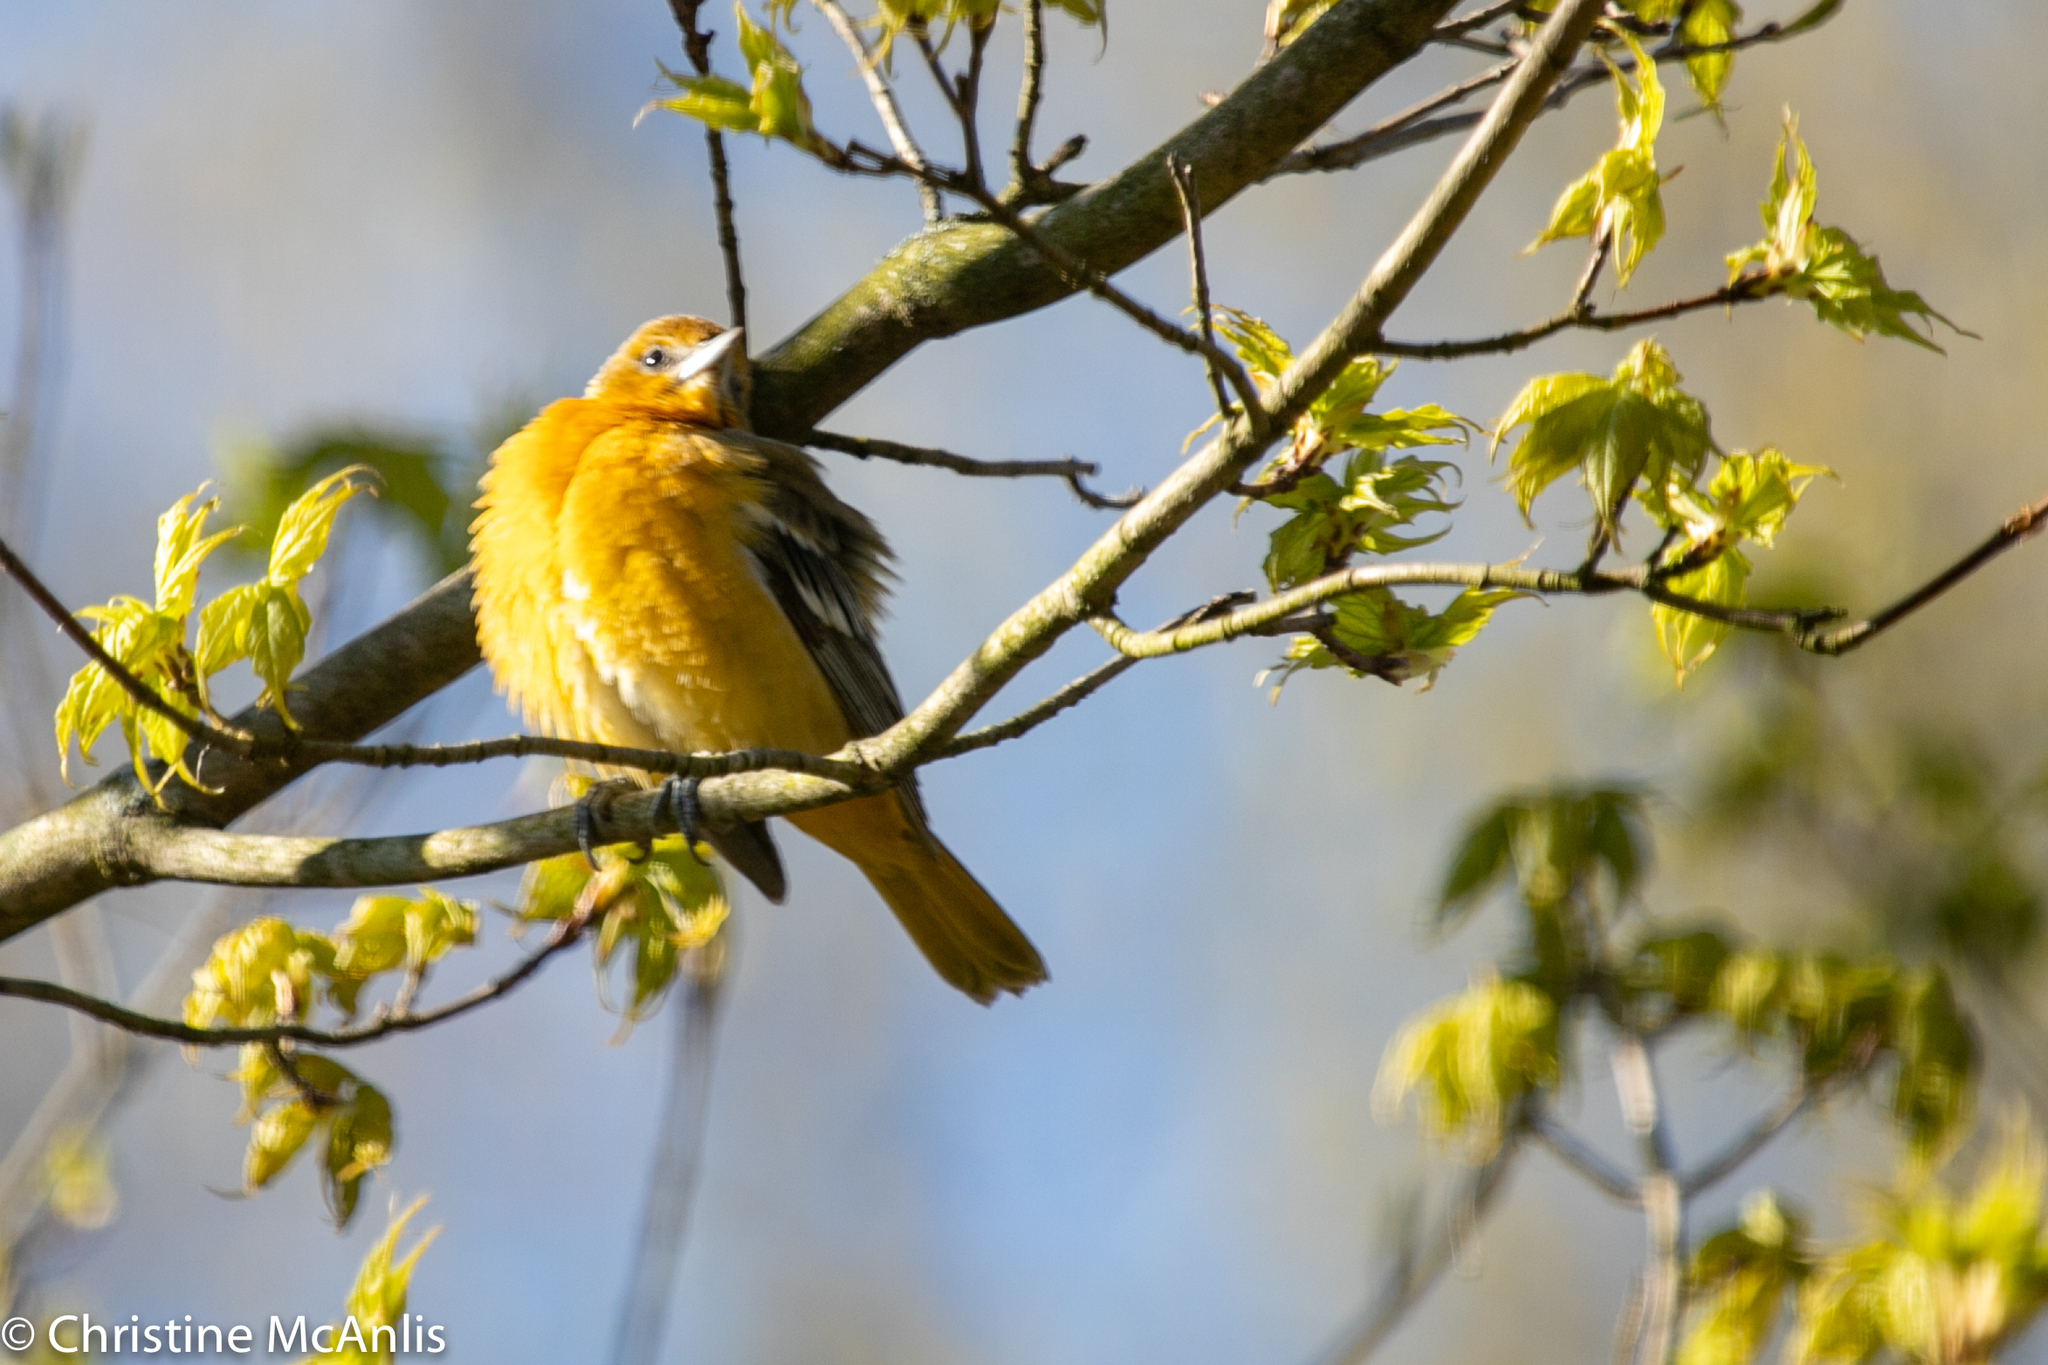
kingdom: Animalia
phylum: Chordata
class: Aves
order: Passeriformes
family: Icteridae
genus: Icterus
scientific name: Icterus galbula
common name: Baltimore oriole
